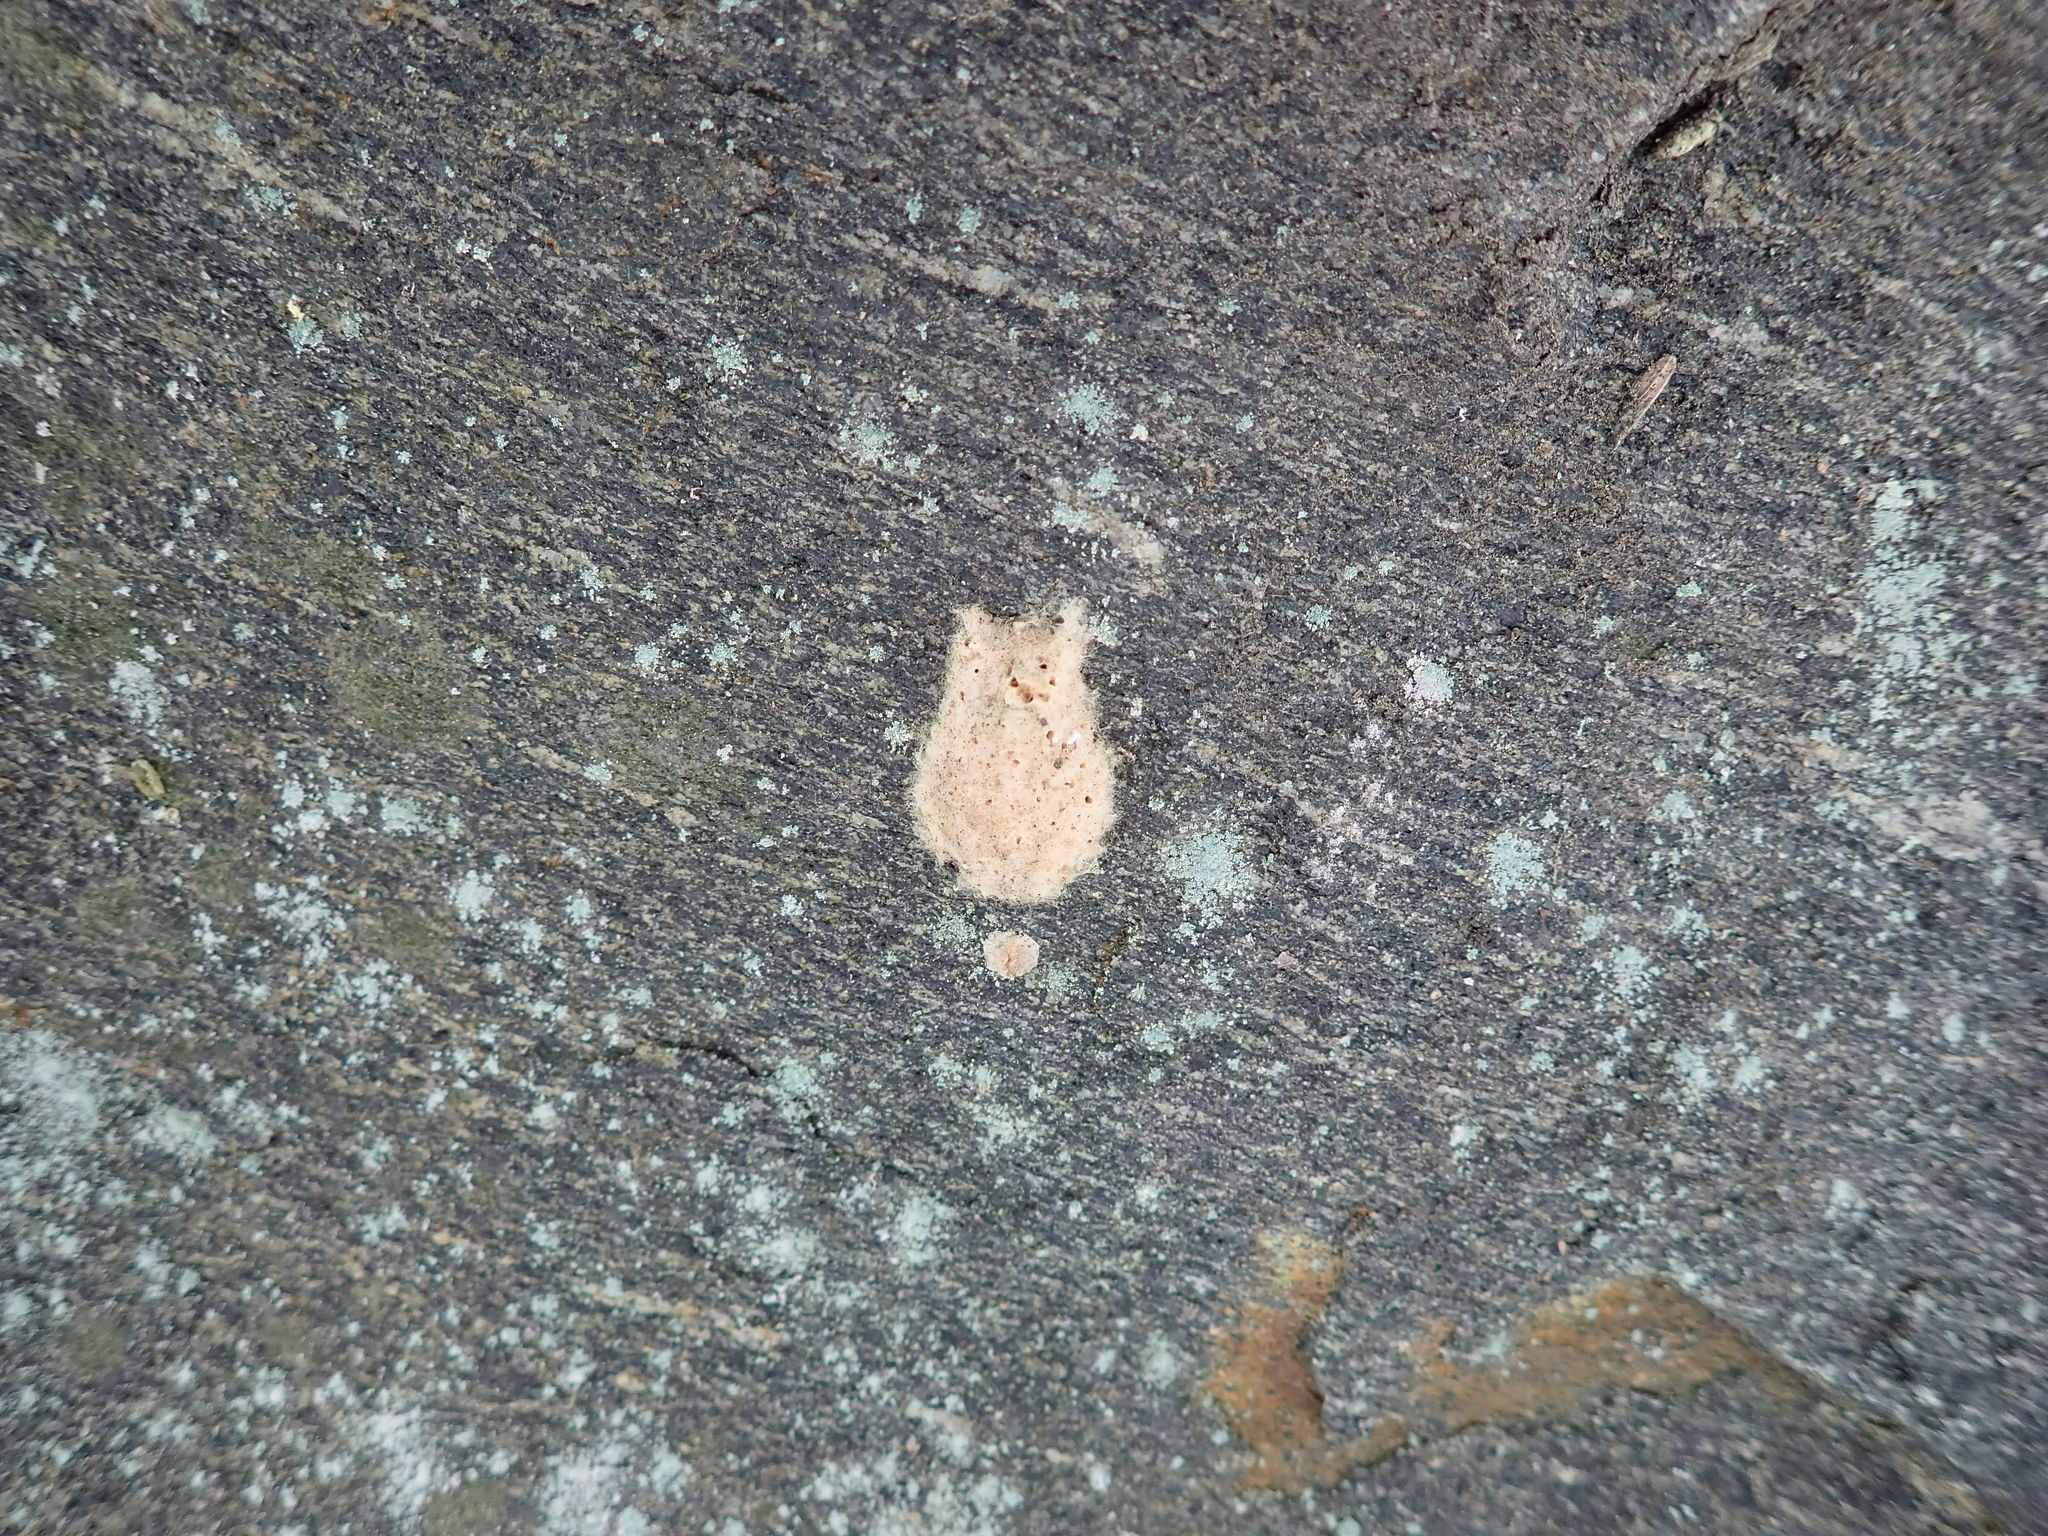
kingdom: Animalia
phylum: Arthropoda
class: Insecta
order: Lepidoptera
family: Erebidae
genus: Lymantria
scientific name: Lymantria dispar
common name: Gypsy moth
